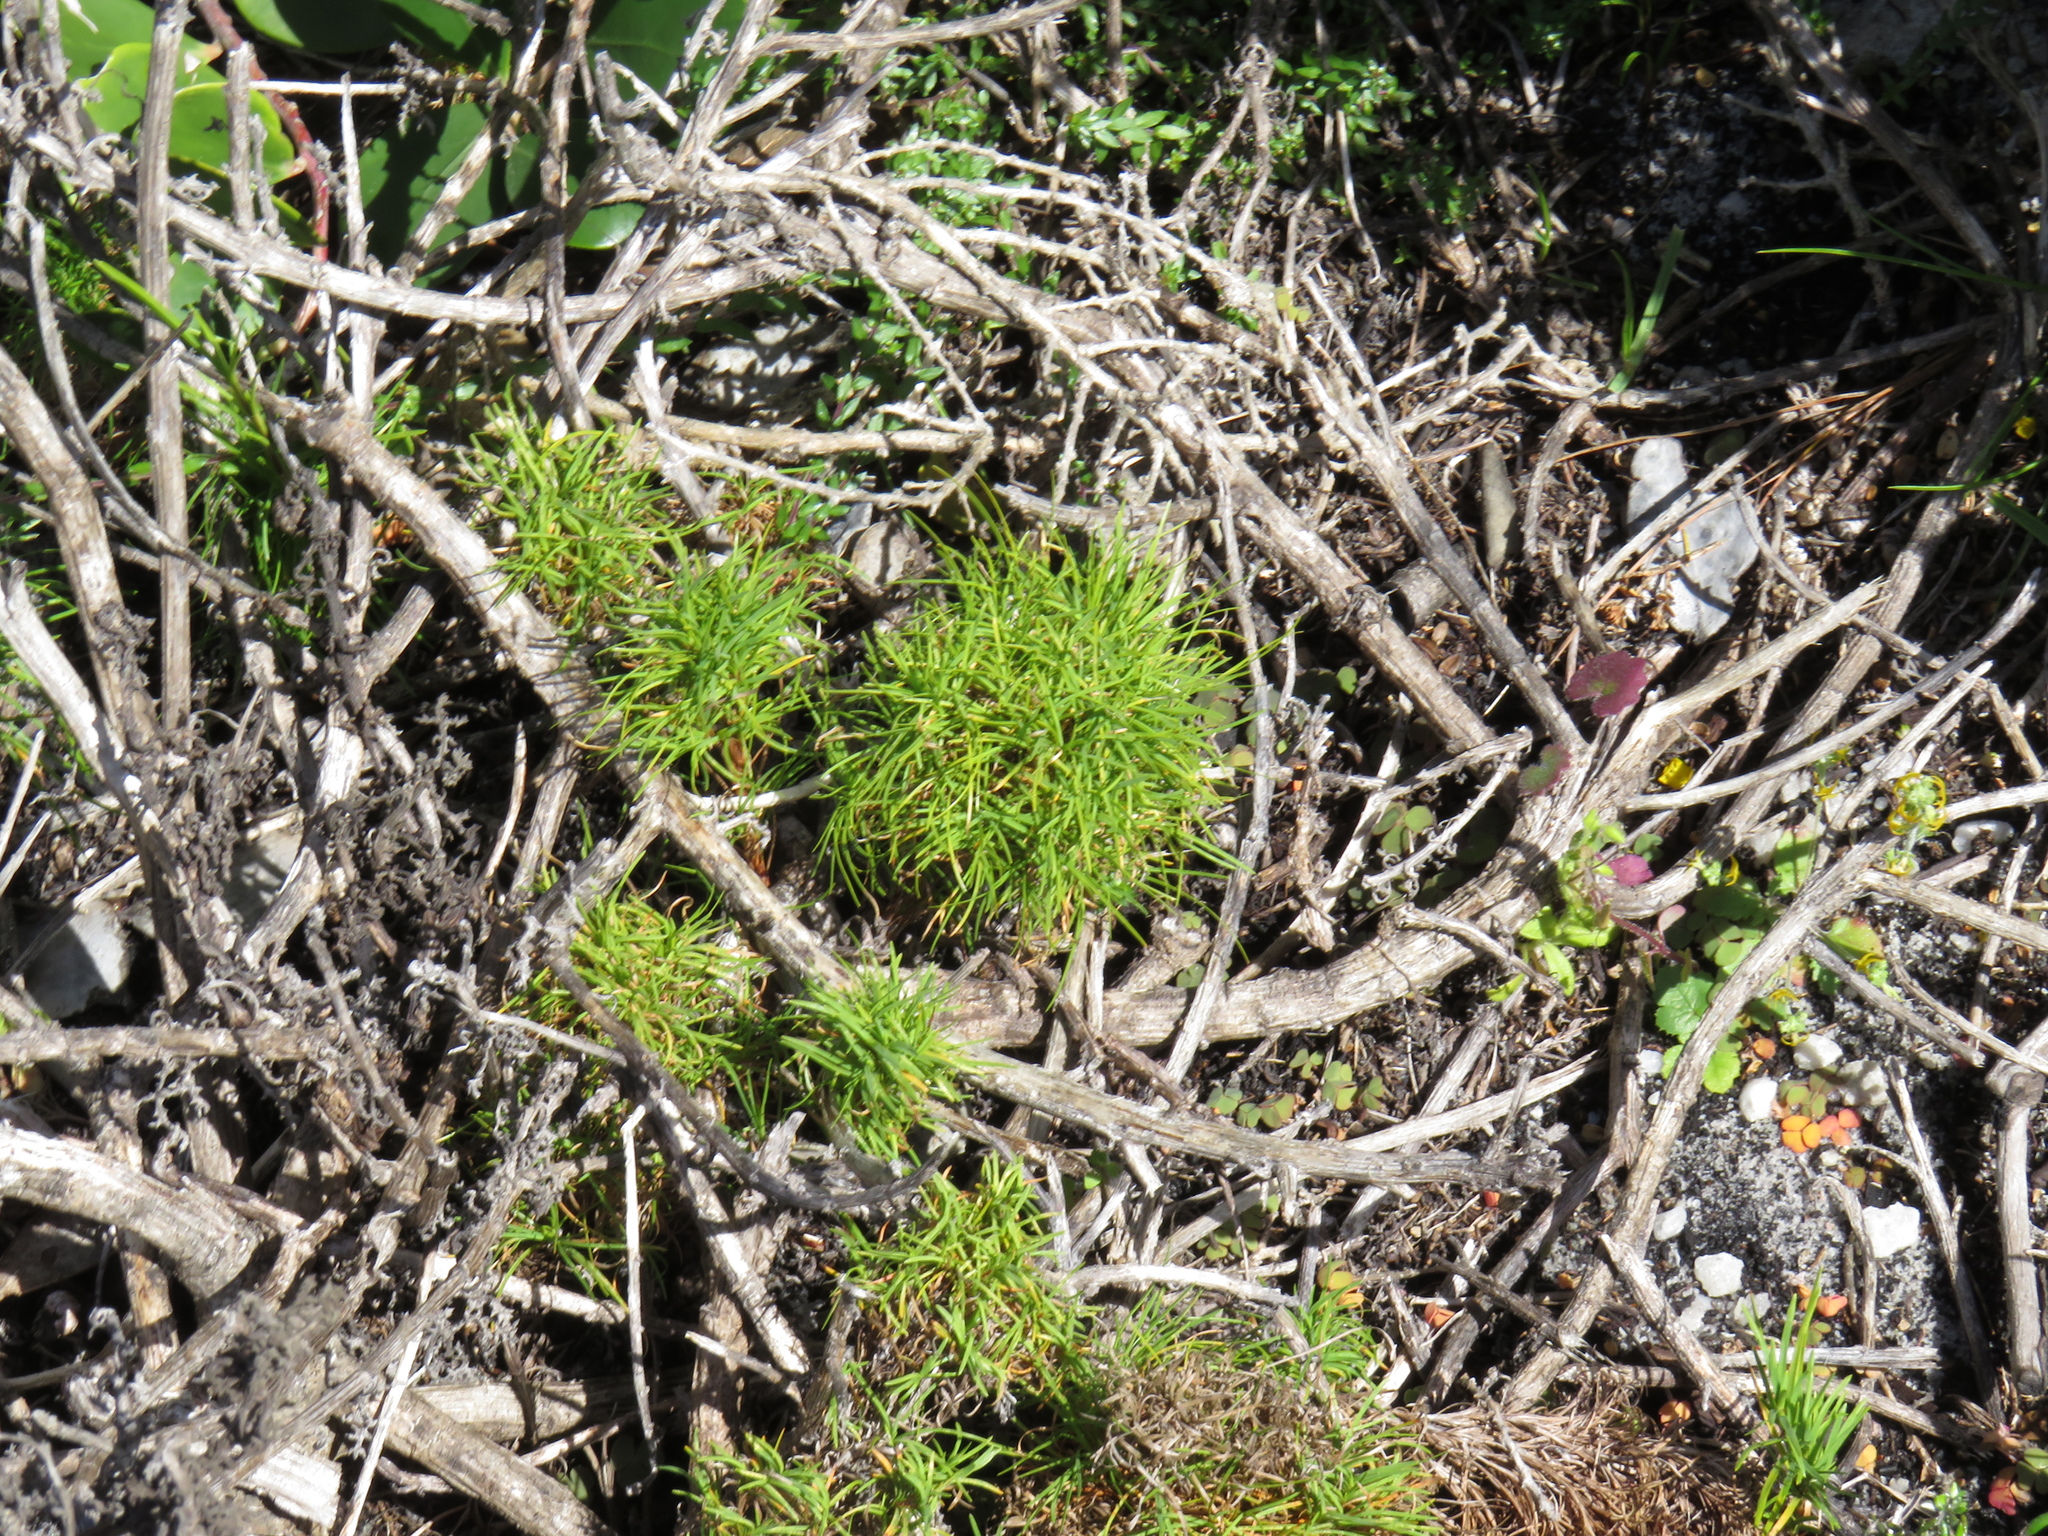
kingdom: Plantae
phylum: Tracheophyta
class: Liliopsida
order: Poales
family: Cyperaceae
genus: Ficinia
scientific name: Ficinia ramosissima
